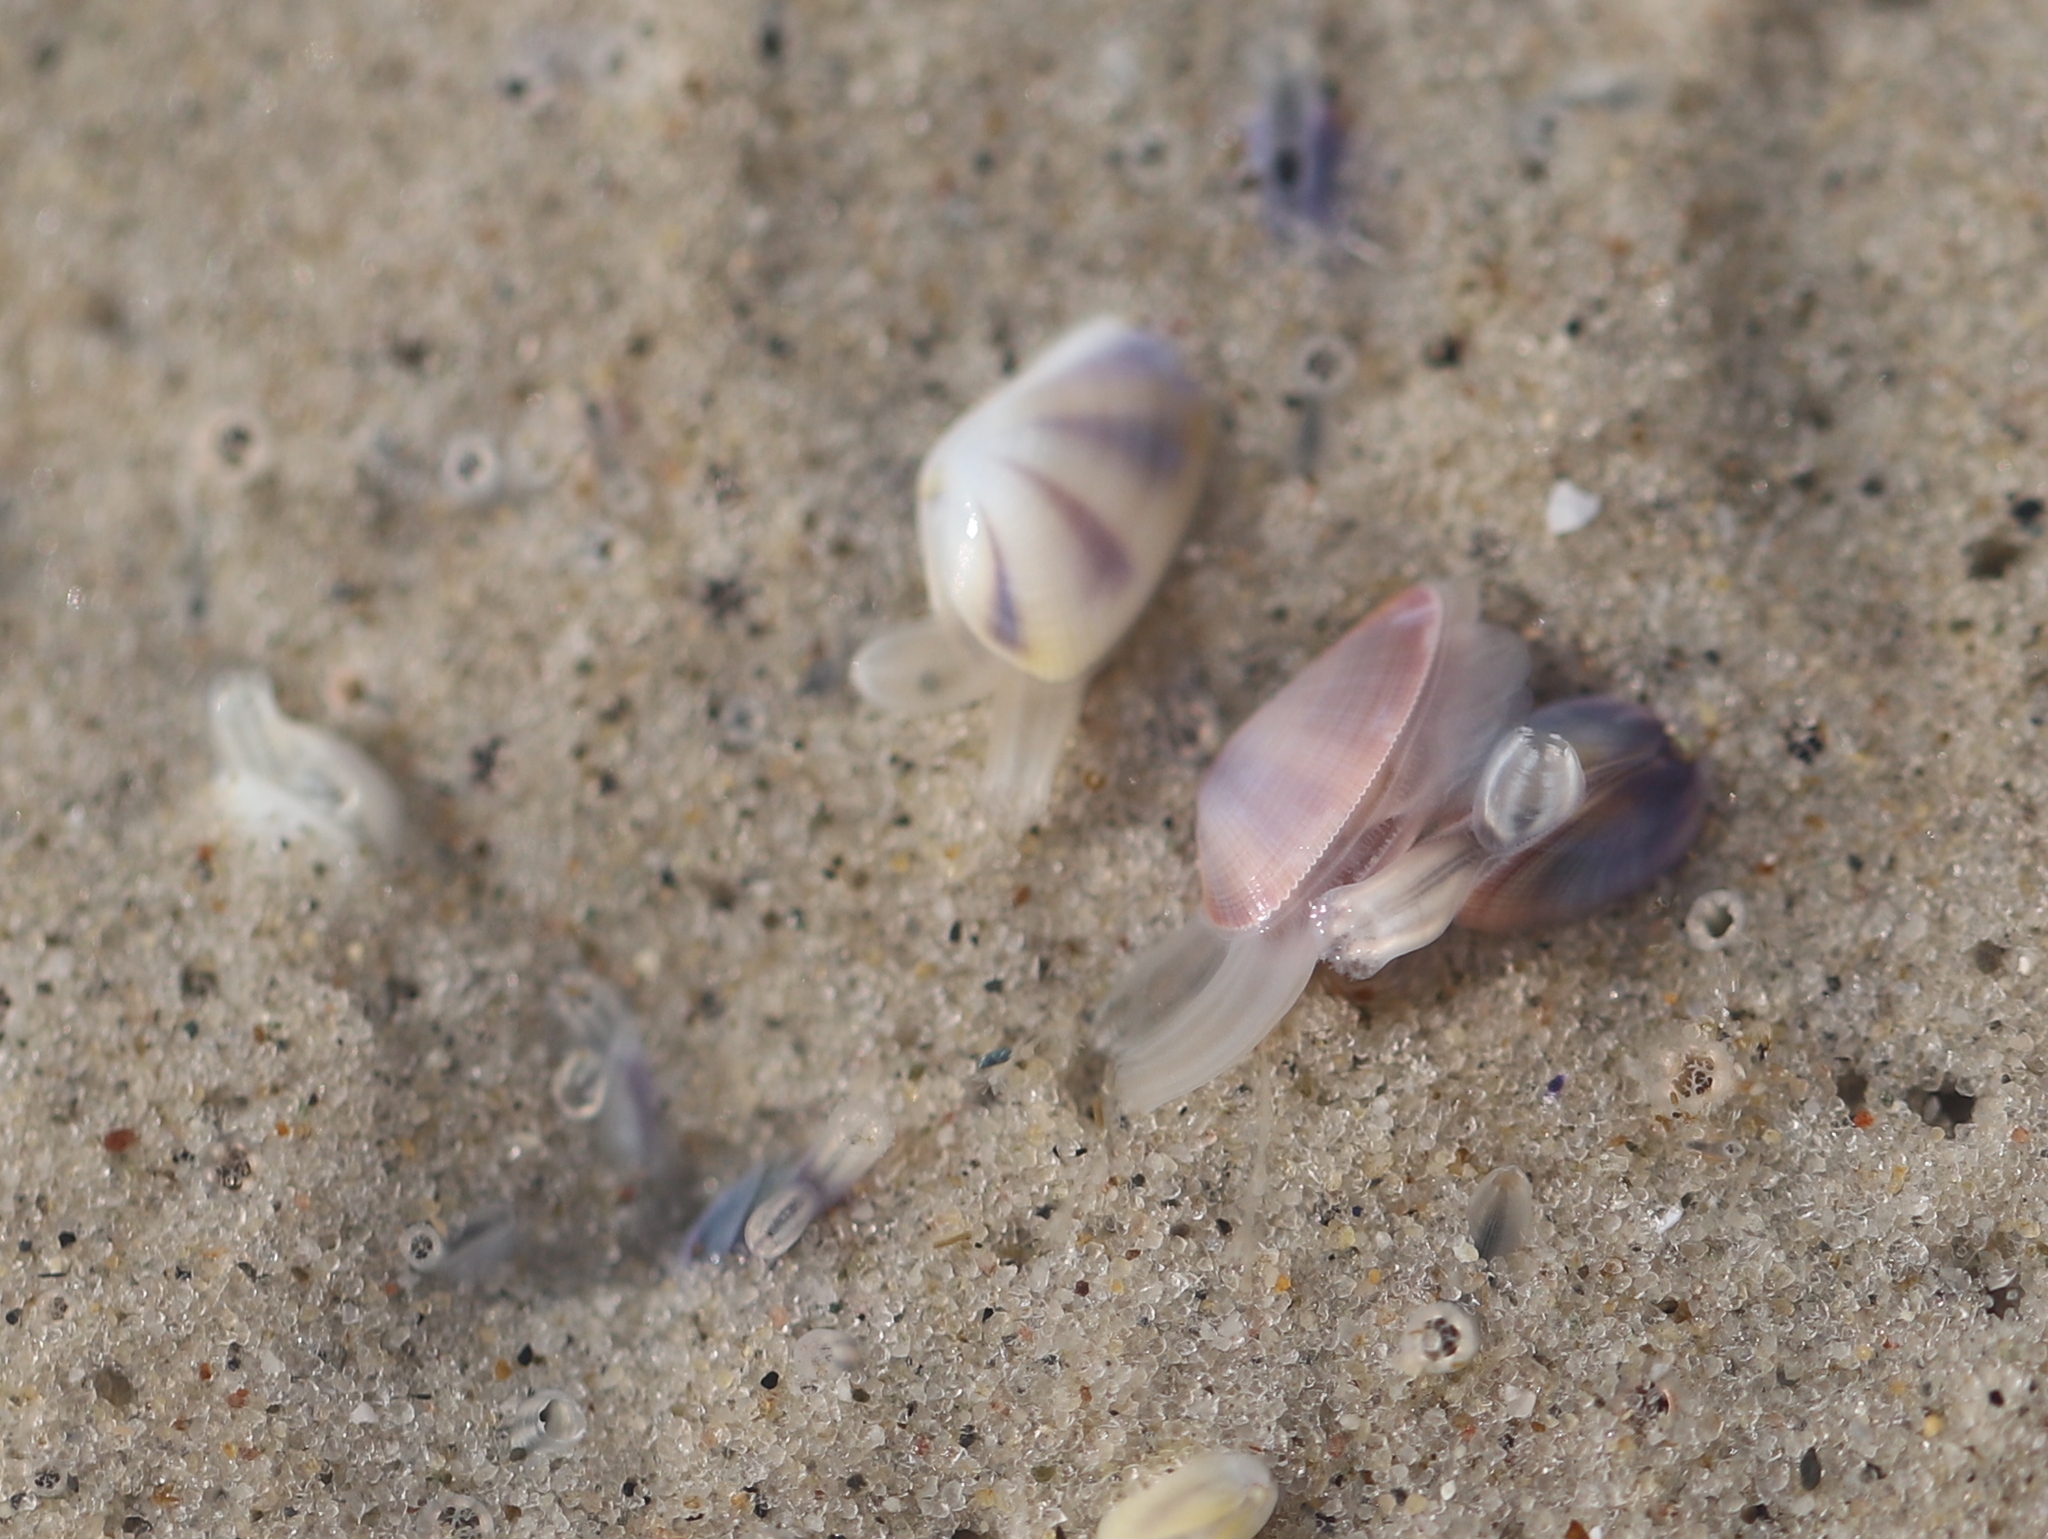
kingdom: Animalia
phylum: Mollusca
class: Bivalvia
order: Cardiida
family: Donacidae
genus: Donax
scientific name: Donax fossor
